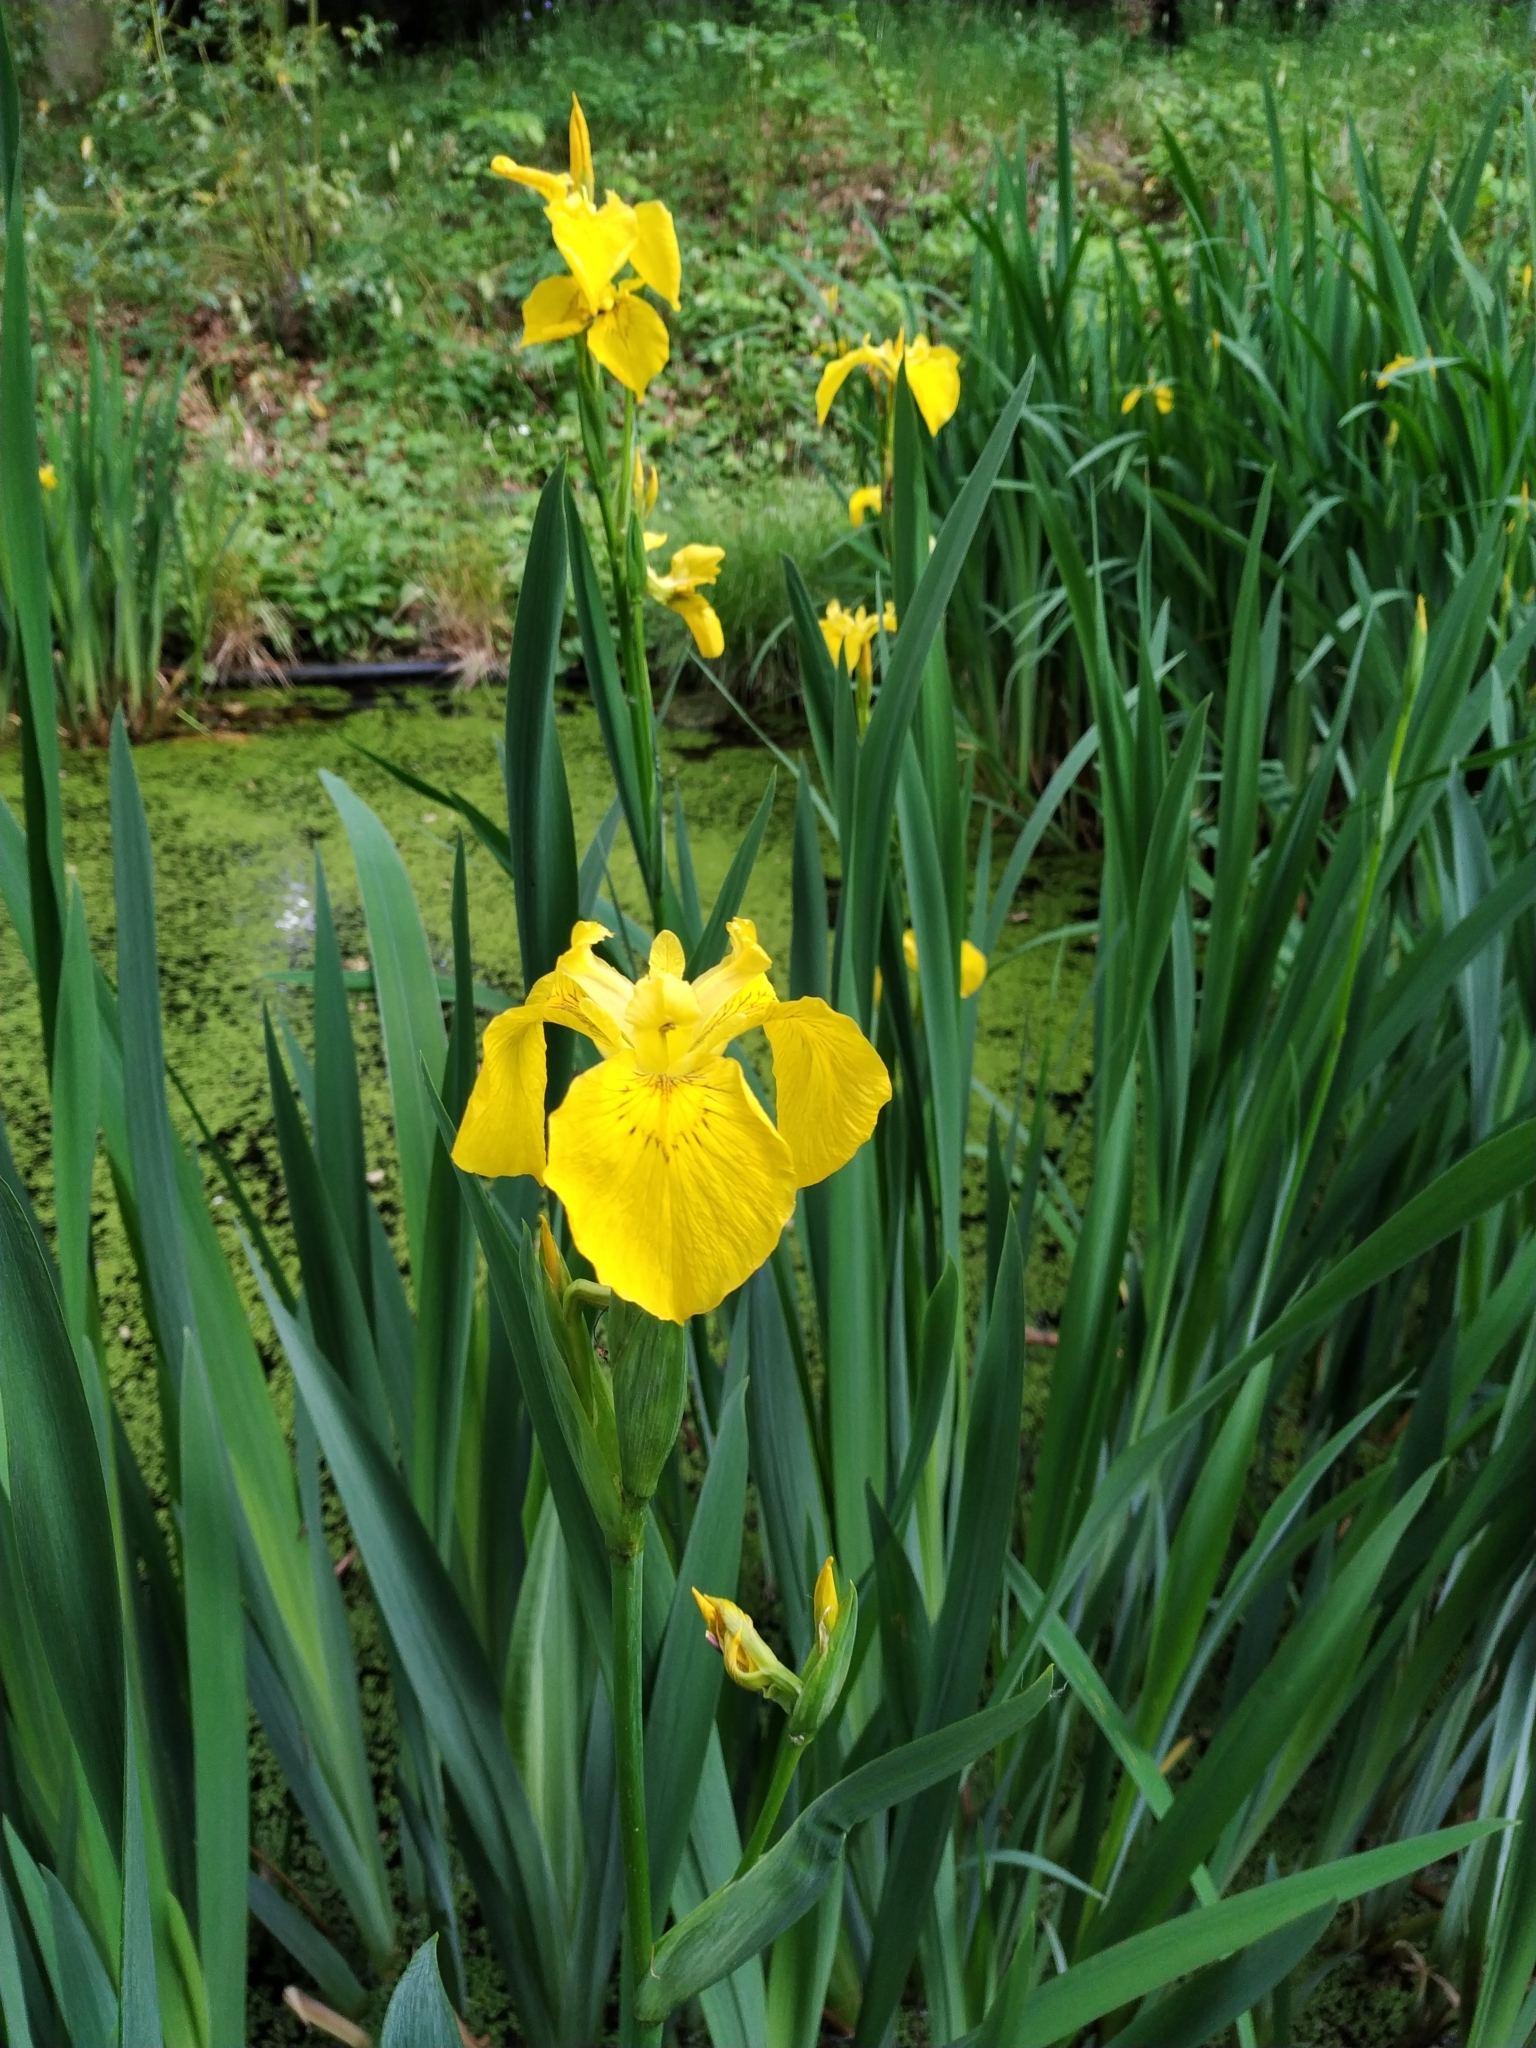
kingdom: Plantae
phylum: Tracheophyta
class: Liliopsida
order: Asparagales
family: Iridaceae
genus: Iris
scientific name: Iris pseudacorus
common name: Yellow flag
